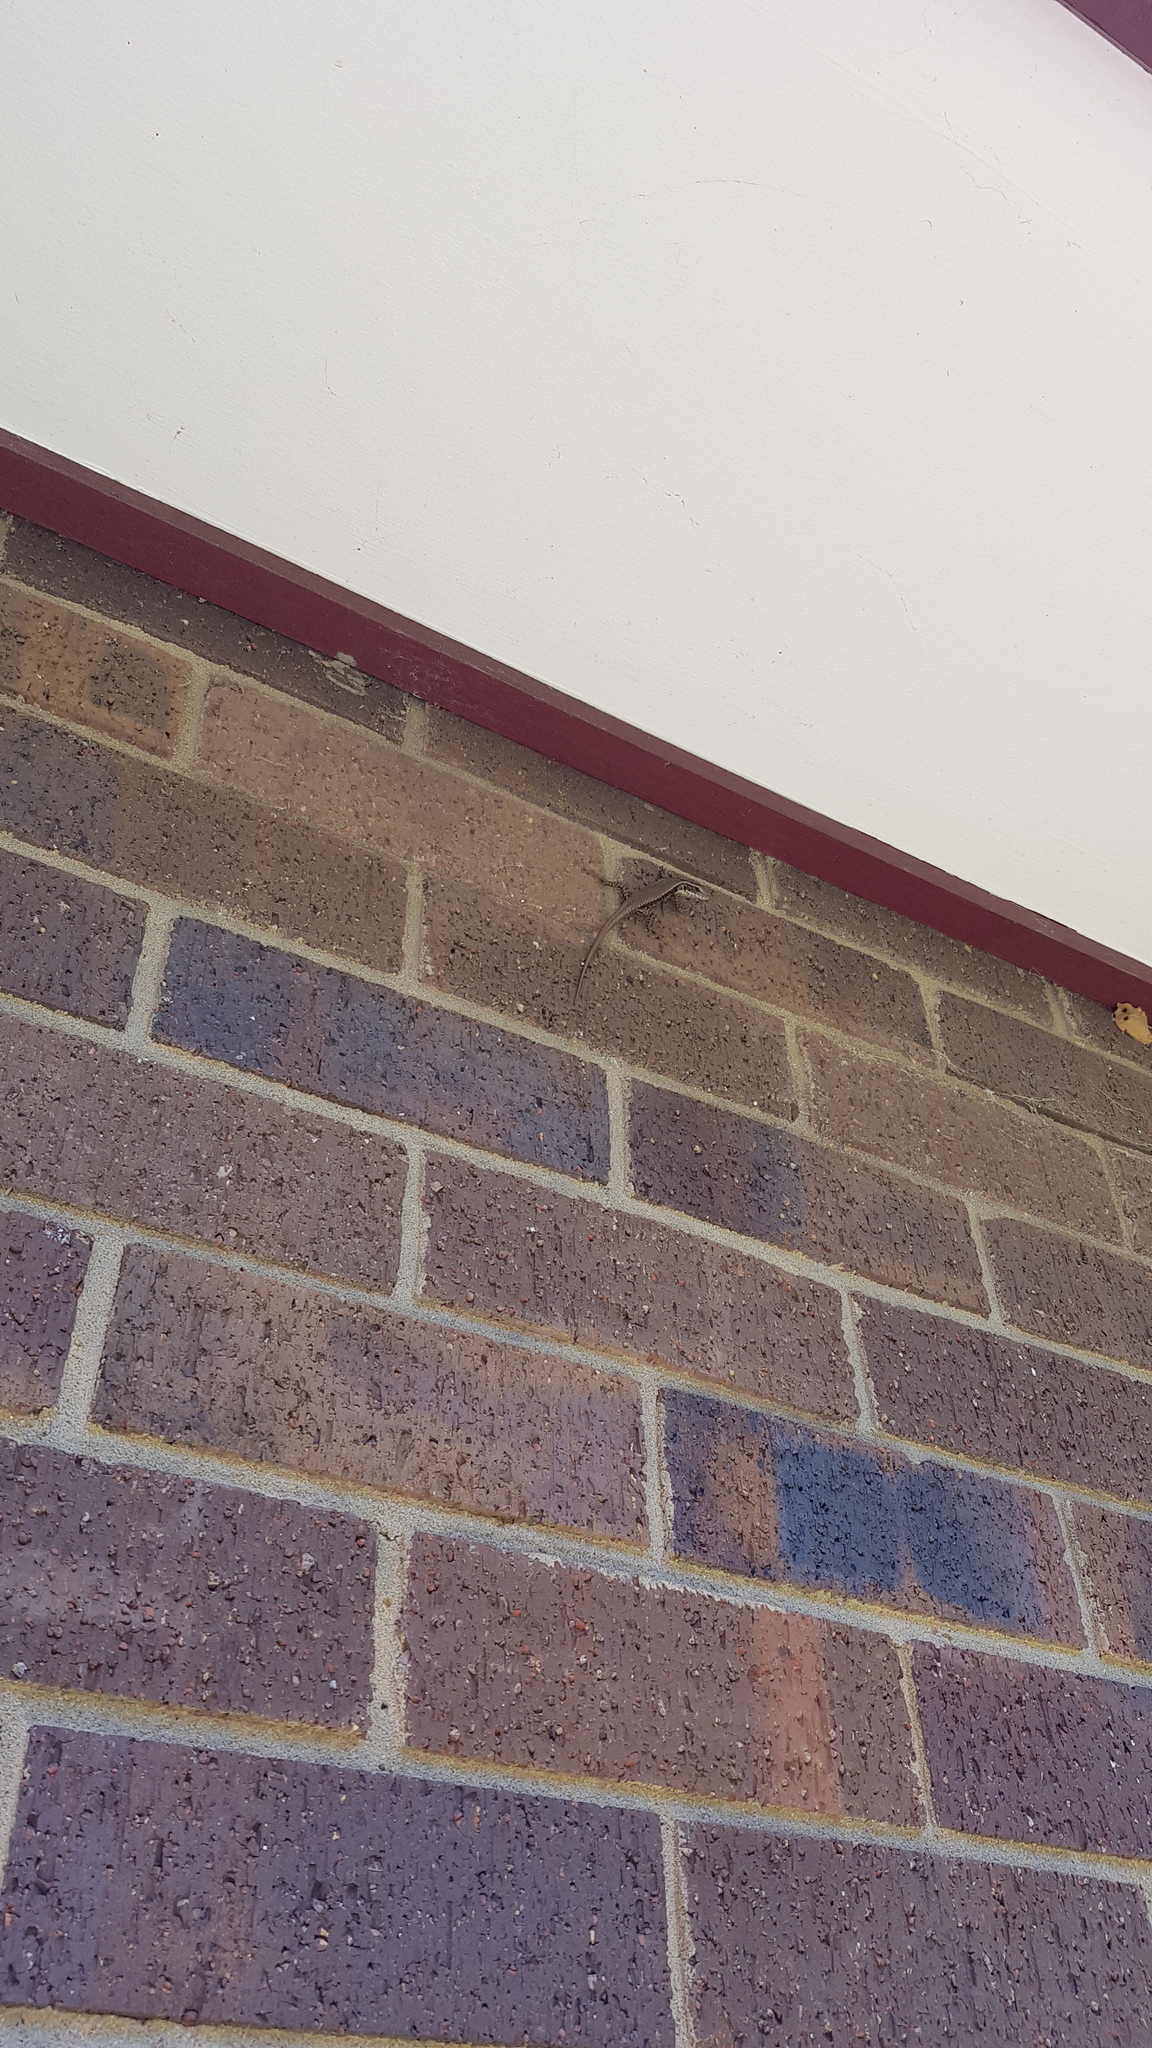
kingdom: Animalia
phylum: Chordata
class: Squamata
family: Scincidae
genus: Eulamprus
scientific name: Eulamprus quoyii
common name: Eastern water skink
